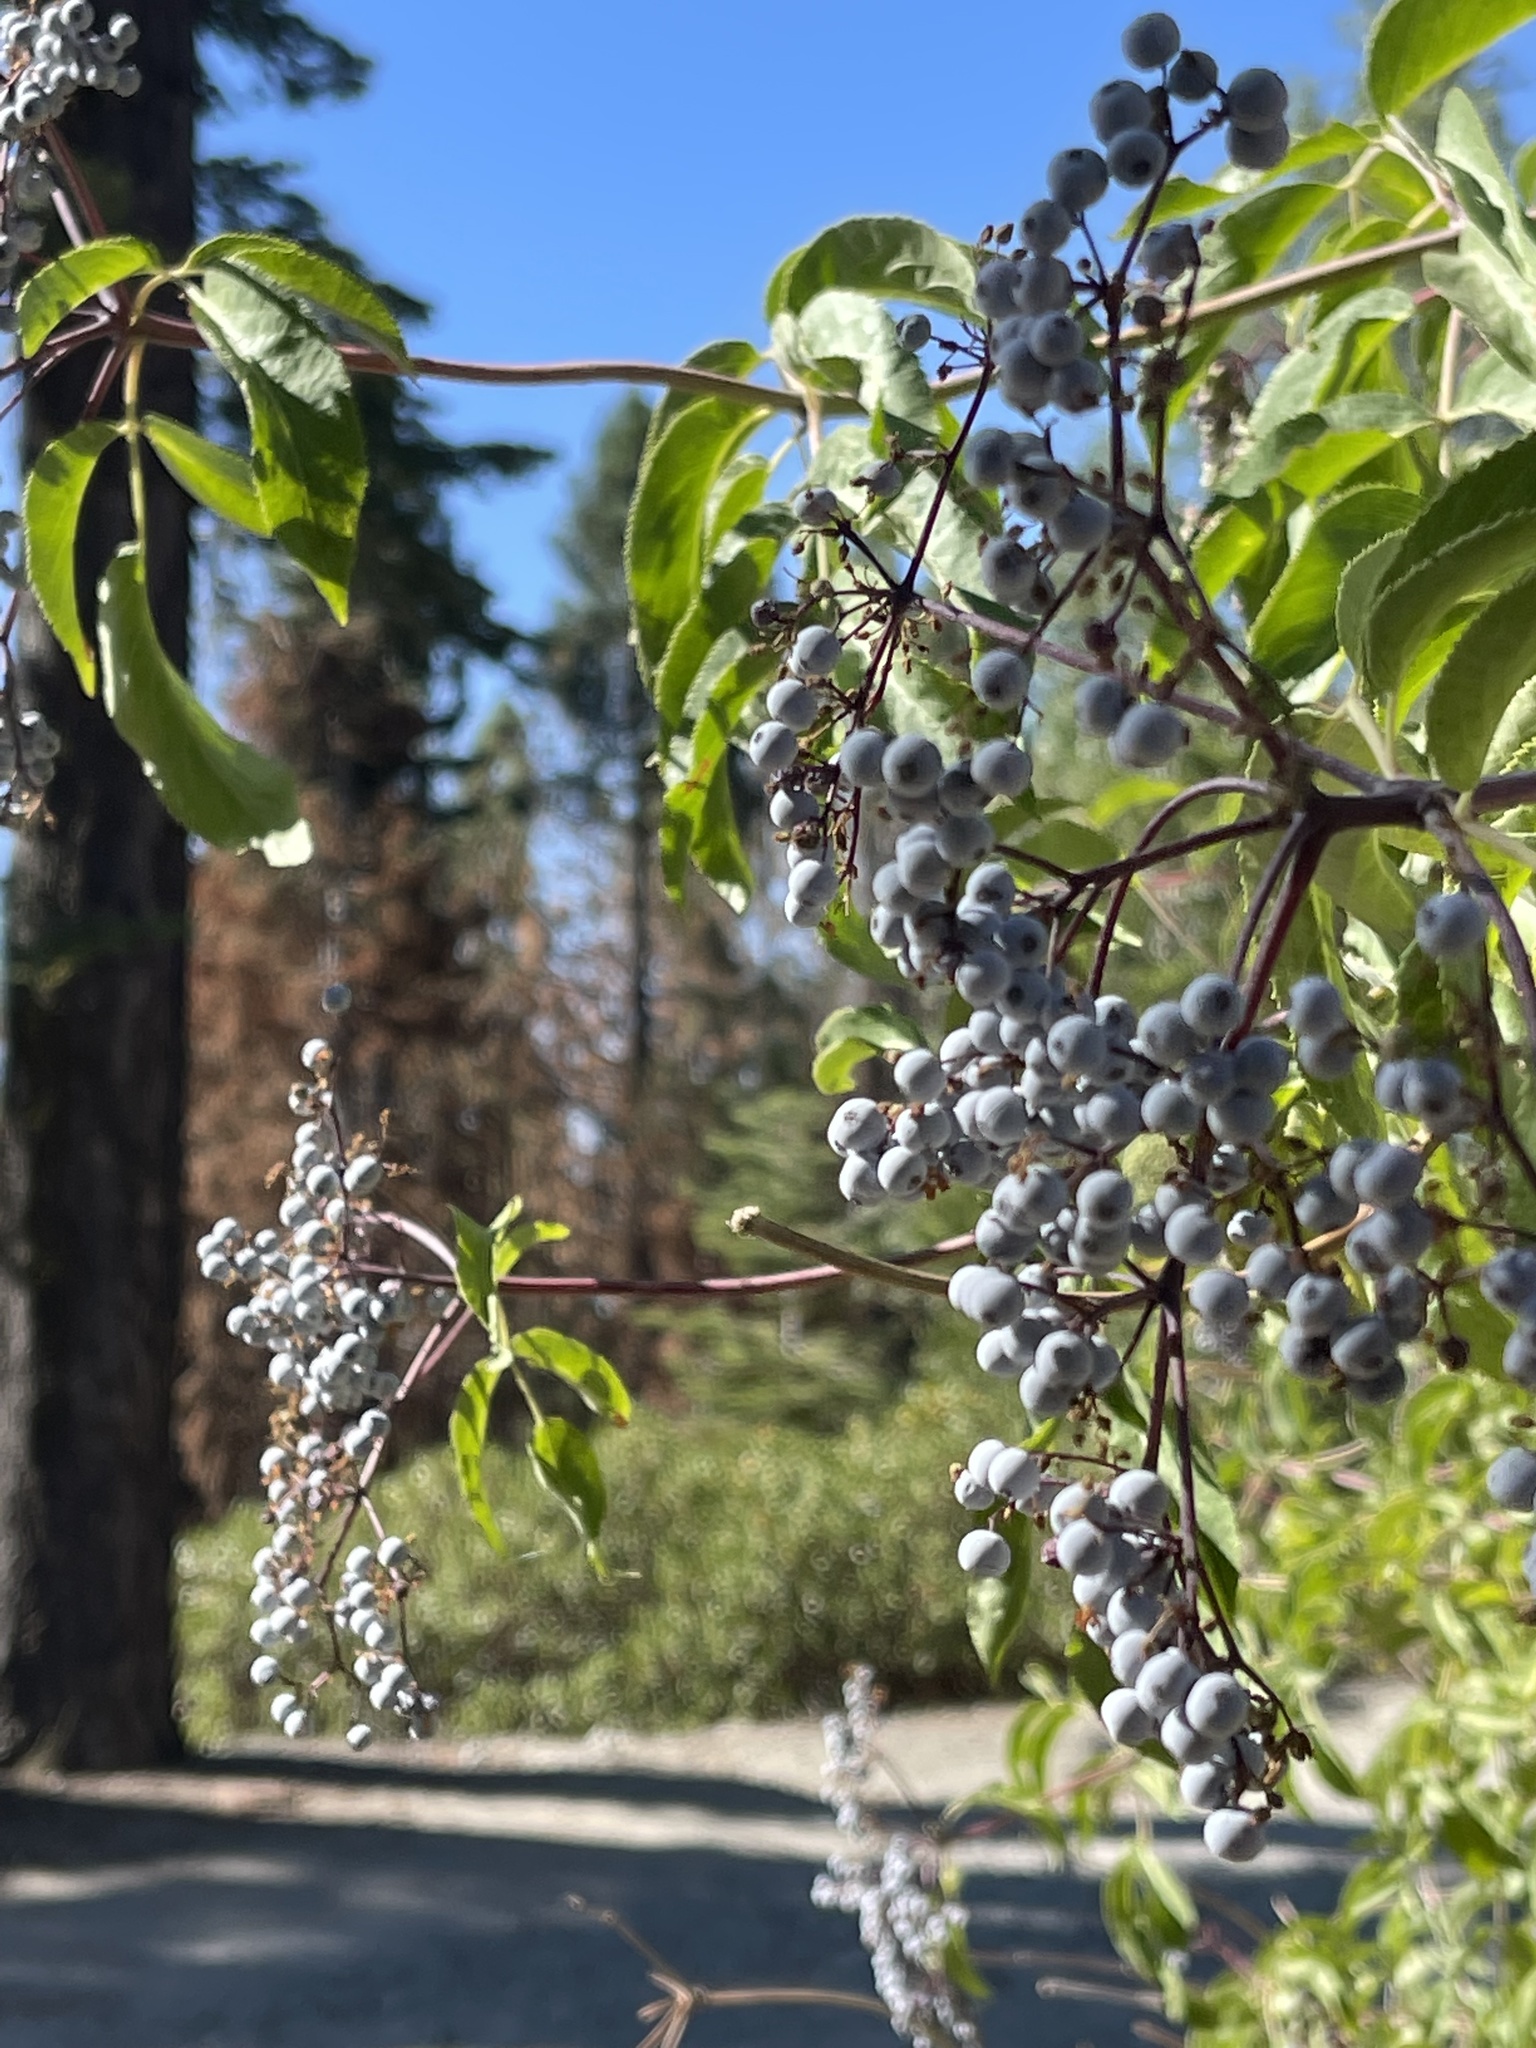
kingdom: Plantae
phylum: Tracheophyta
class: Magnoliopsida
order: Dipsacales
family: Viburnaceae
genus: Sambucus
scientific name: Sambucus cerulea
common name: Blue elder
